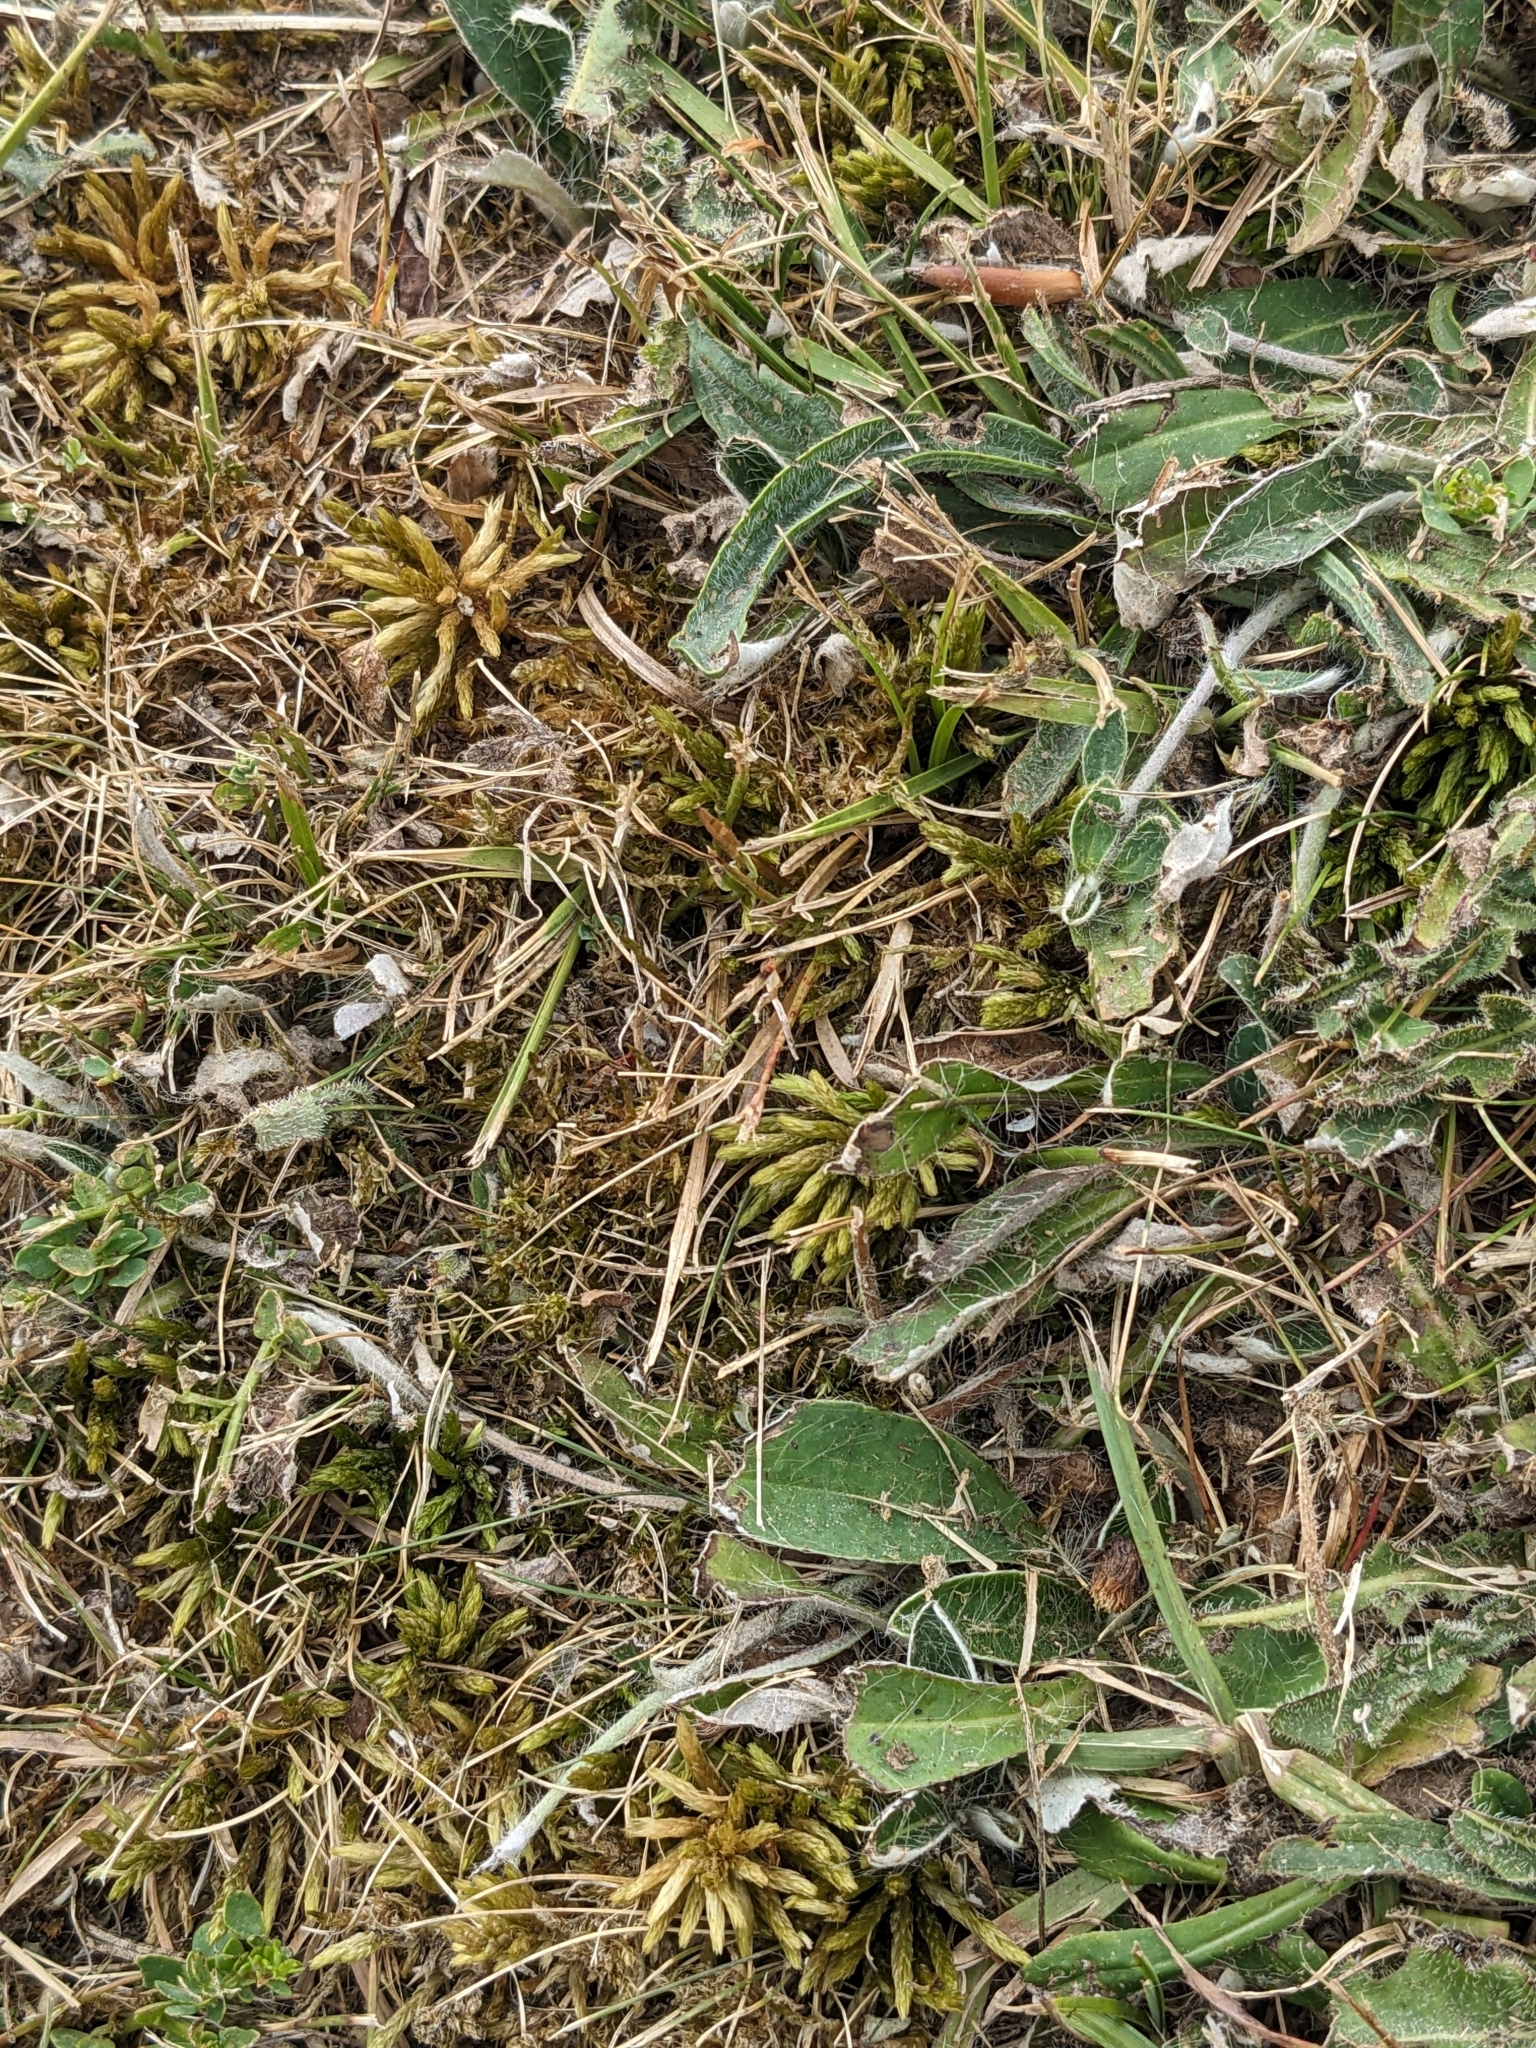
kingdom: Plantae
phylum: Bryophyta
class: Bryopsida
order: Hypnales
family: Climaciaceae
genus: Climacium
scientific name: Climacium dendroides
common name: Northern tree moss
